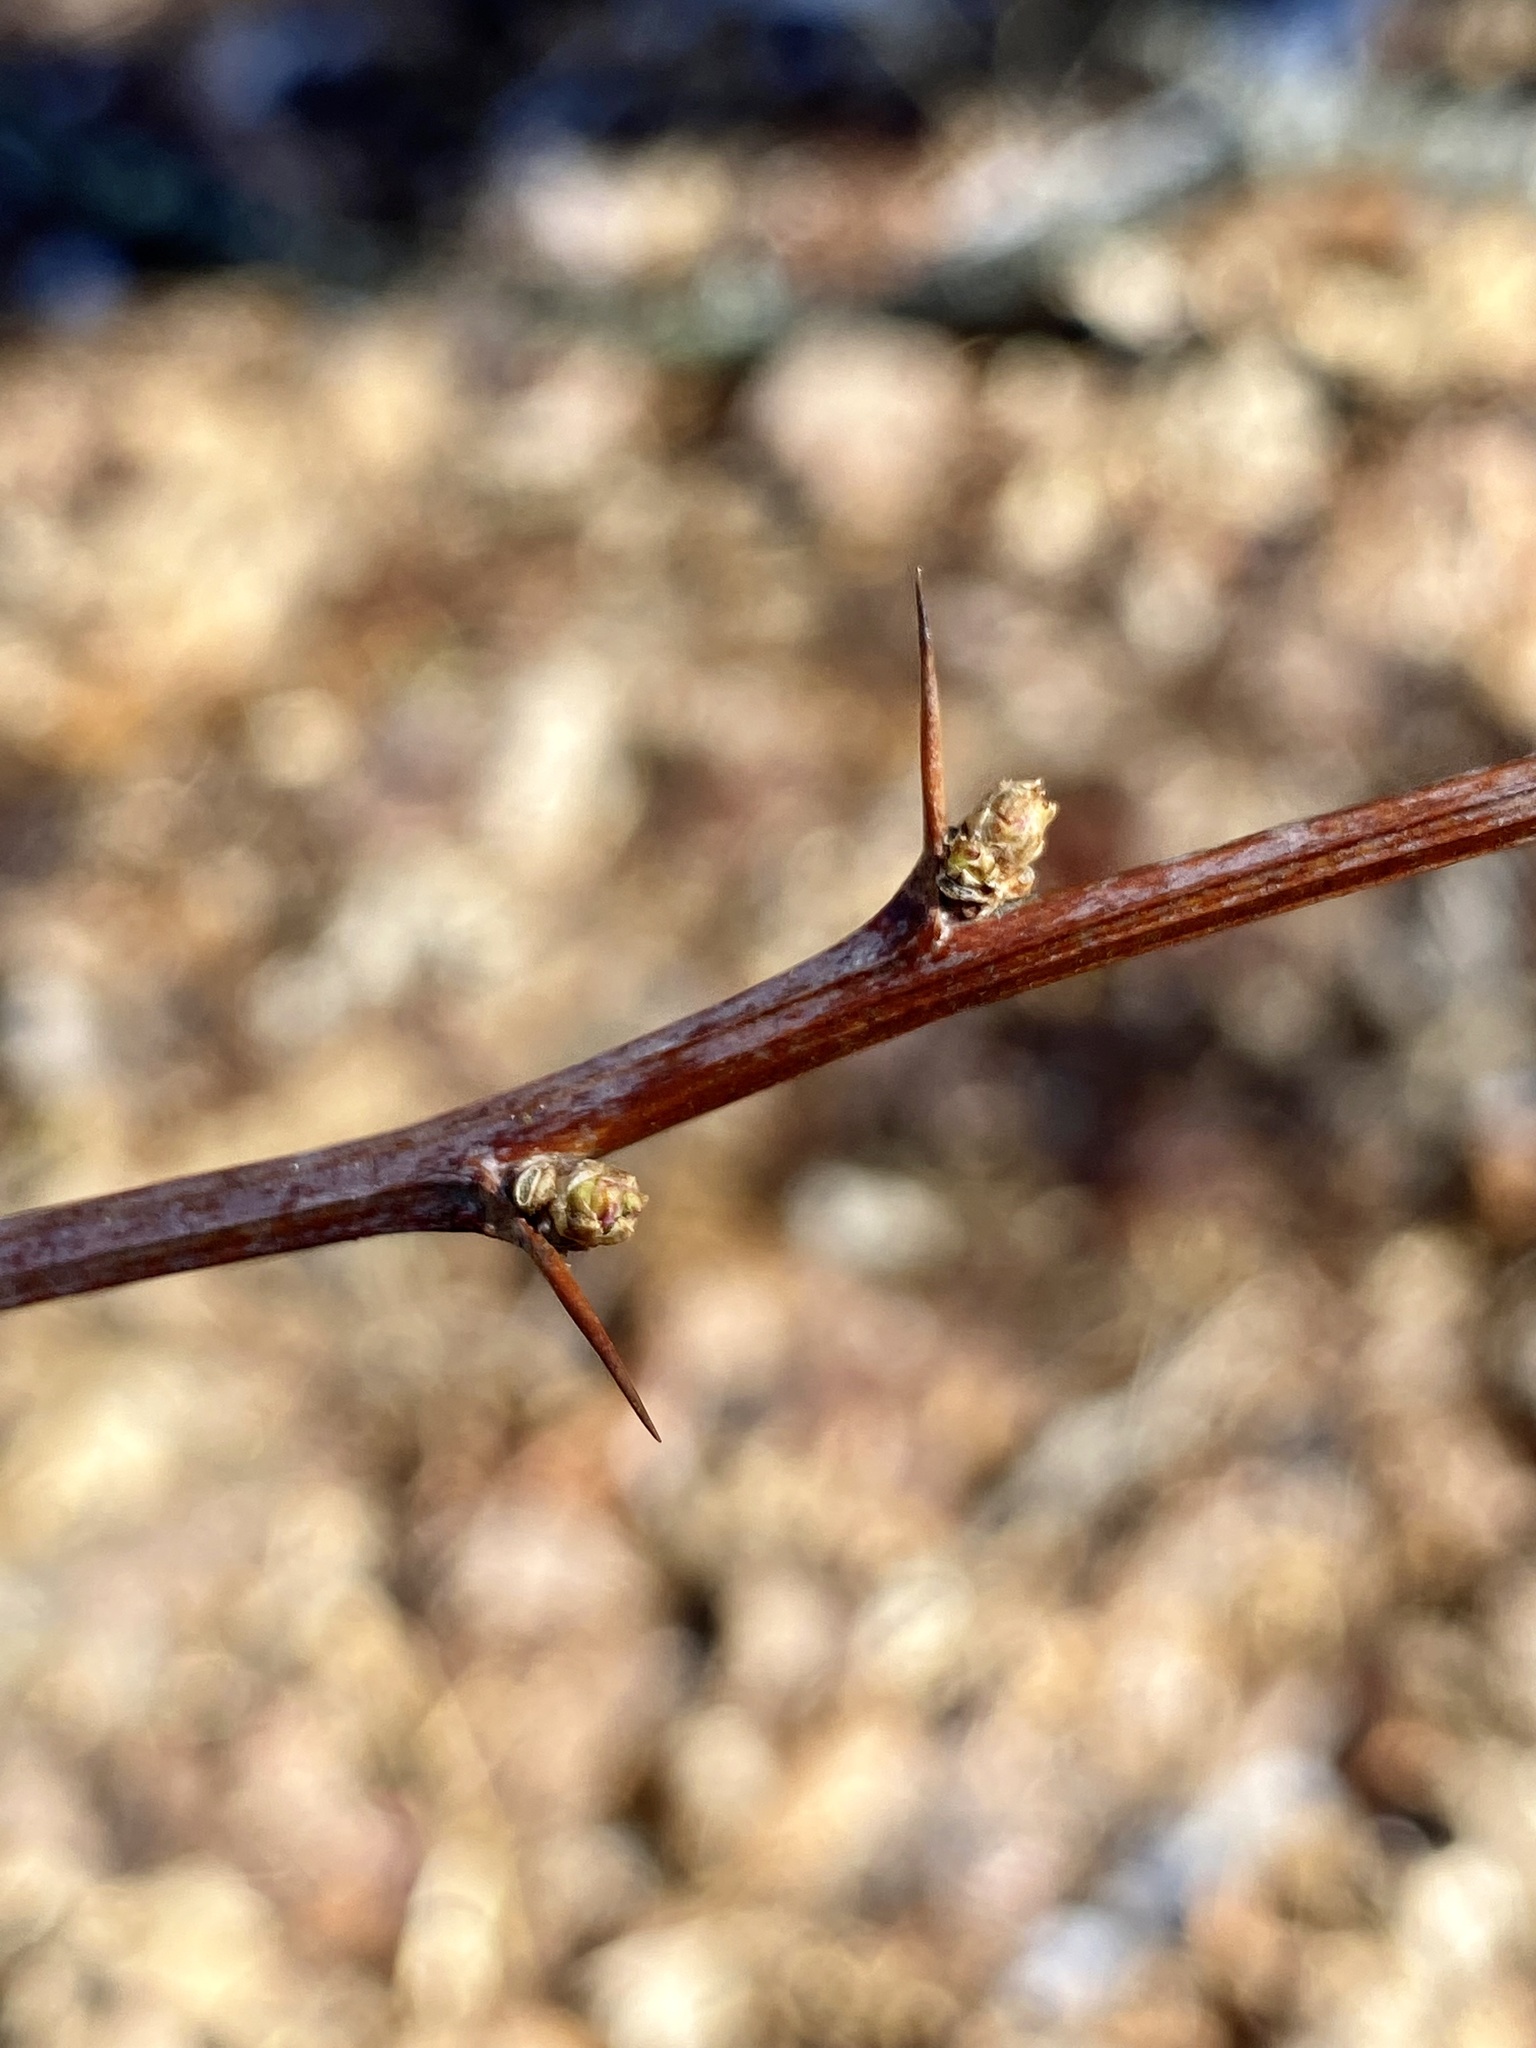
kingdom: Plantae
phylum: Tracheophyta
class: Magnoliopsida
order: Ranunculales
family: Berberidaceae
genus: Berberis
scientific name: Berberis thunbergii
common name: Japanese barberry
